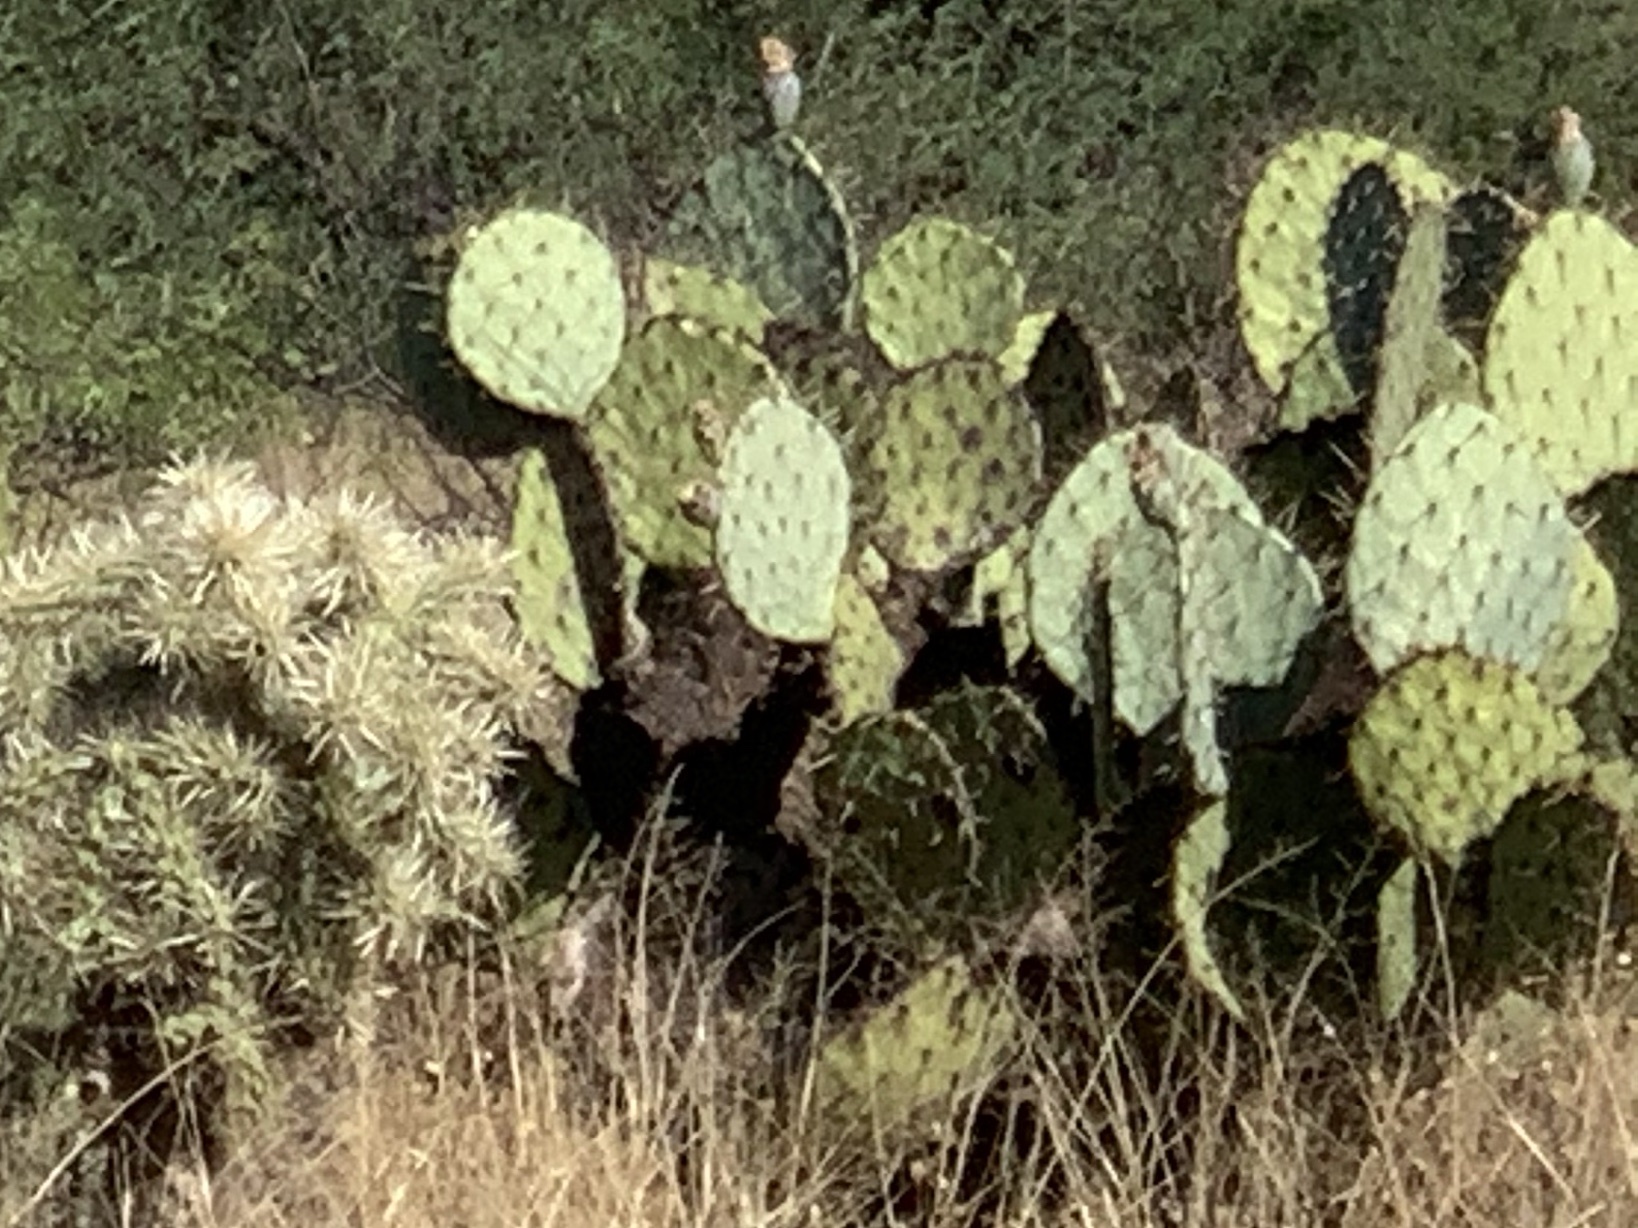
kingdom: Plantae
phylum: Tracheophyta
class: Magnoliopsida
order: Caryophyllales
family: Cactaceae
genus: Opuntia
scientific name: Opuntia engelmannii
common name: Cactus-apple
